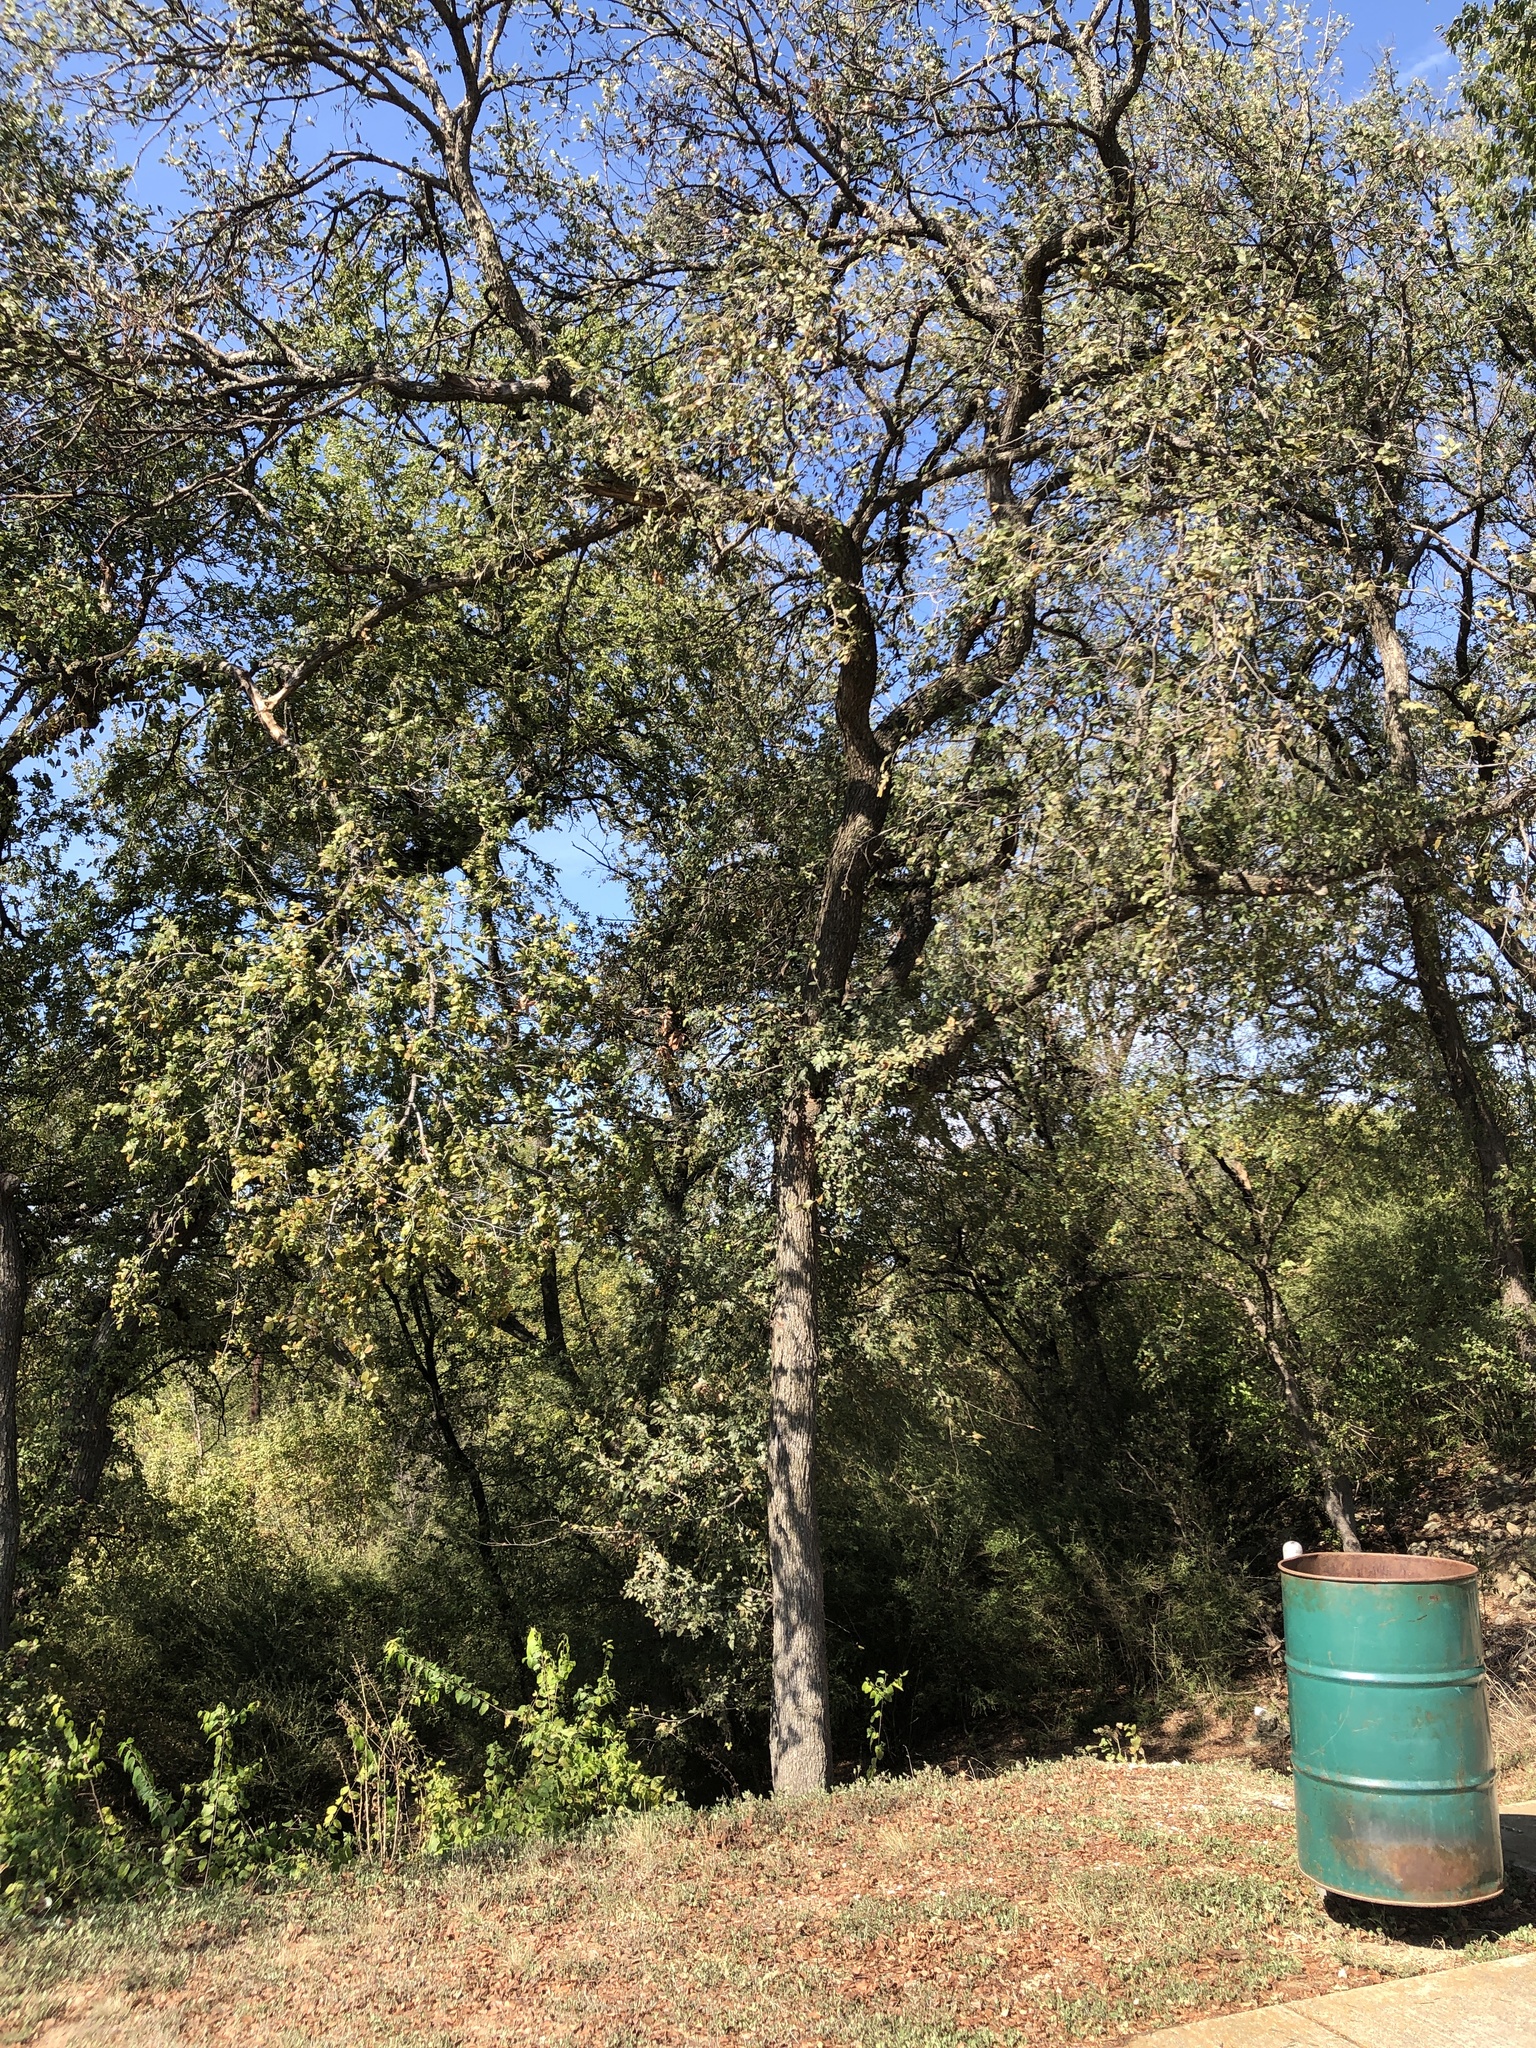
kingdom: Plantae
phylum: Tracheophyta
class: Magnoliopsida
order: Rosales
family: Ulmaceae
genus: Ulmus
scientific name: Ulmus crassifolia
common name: Basket elm
